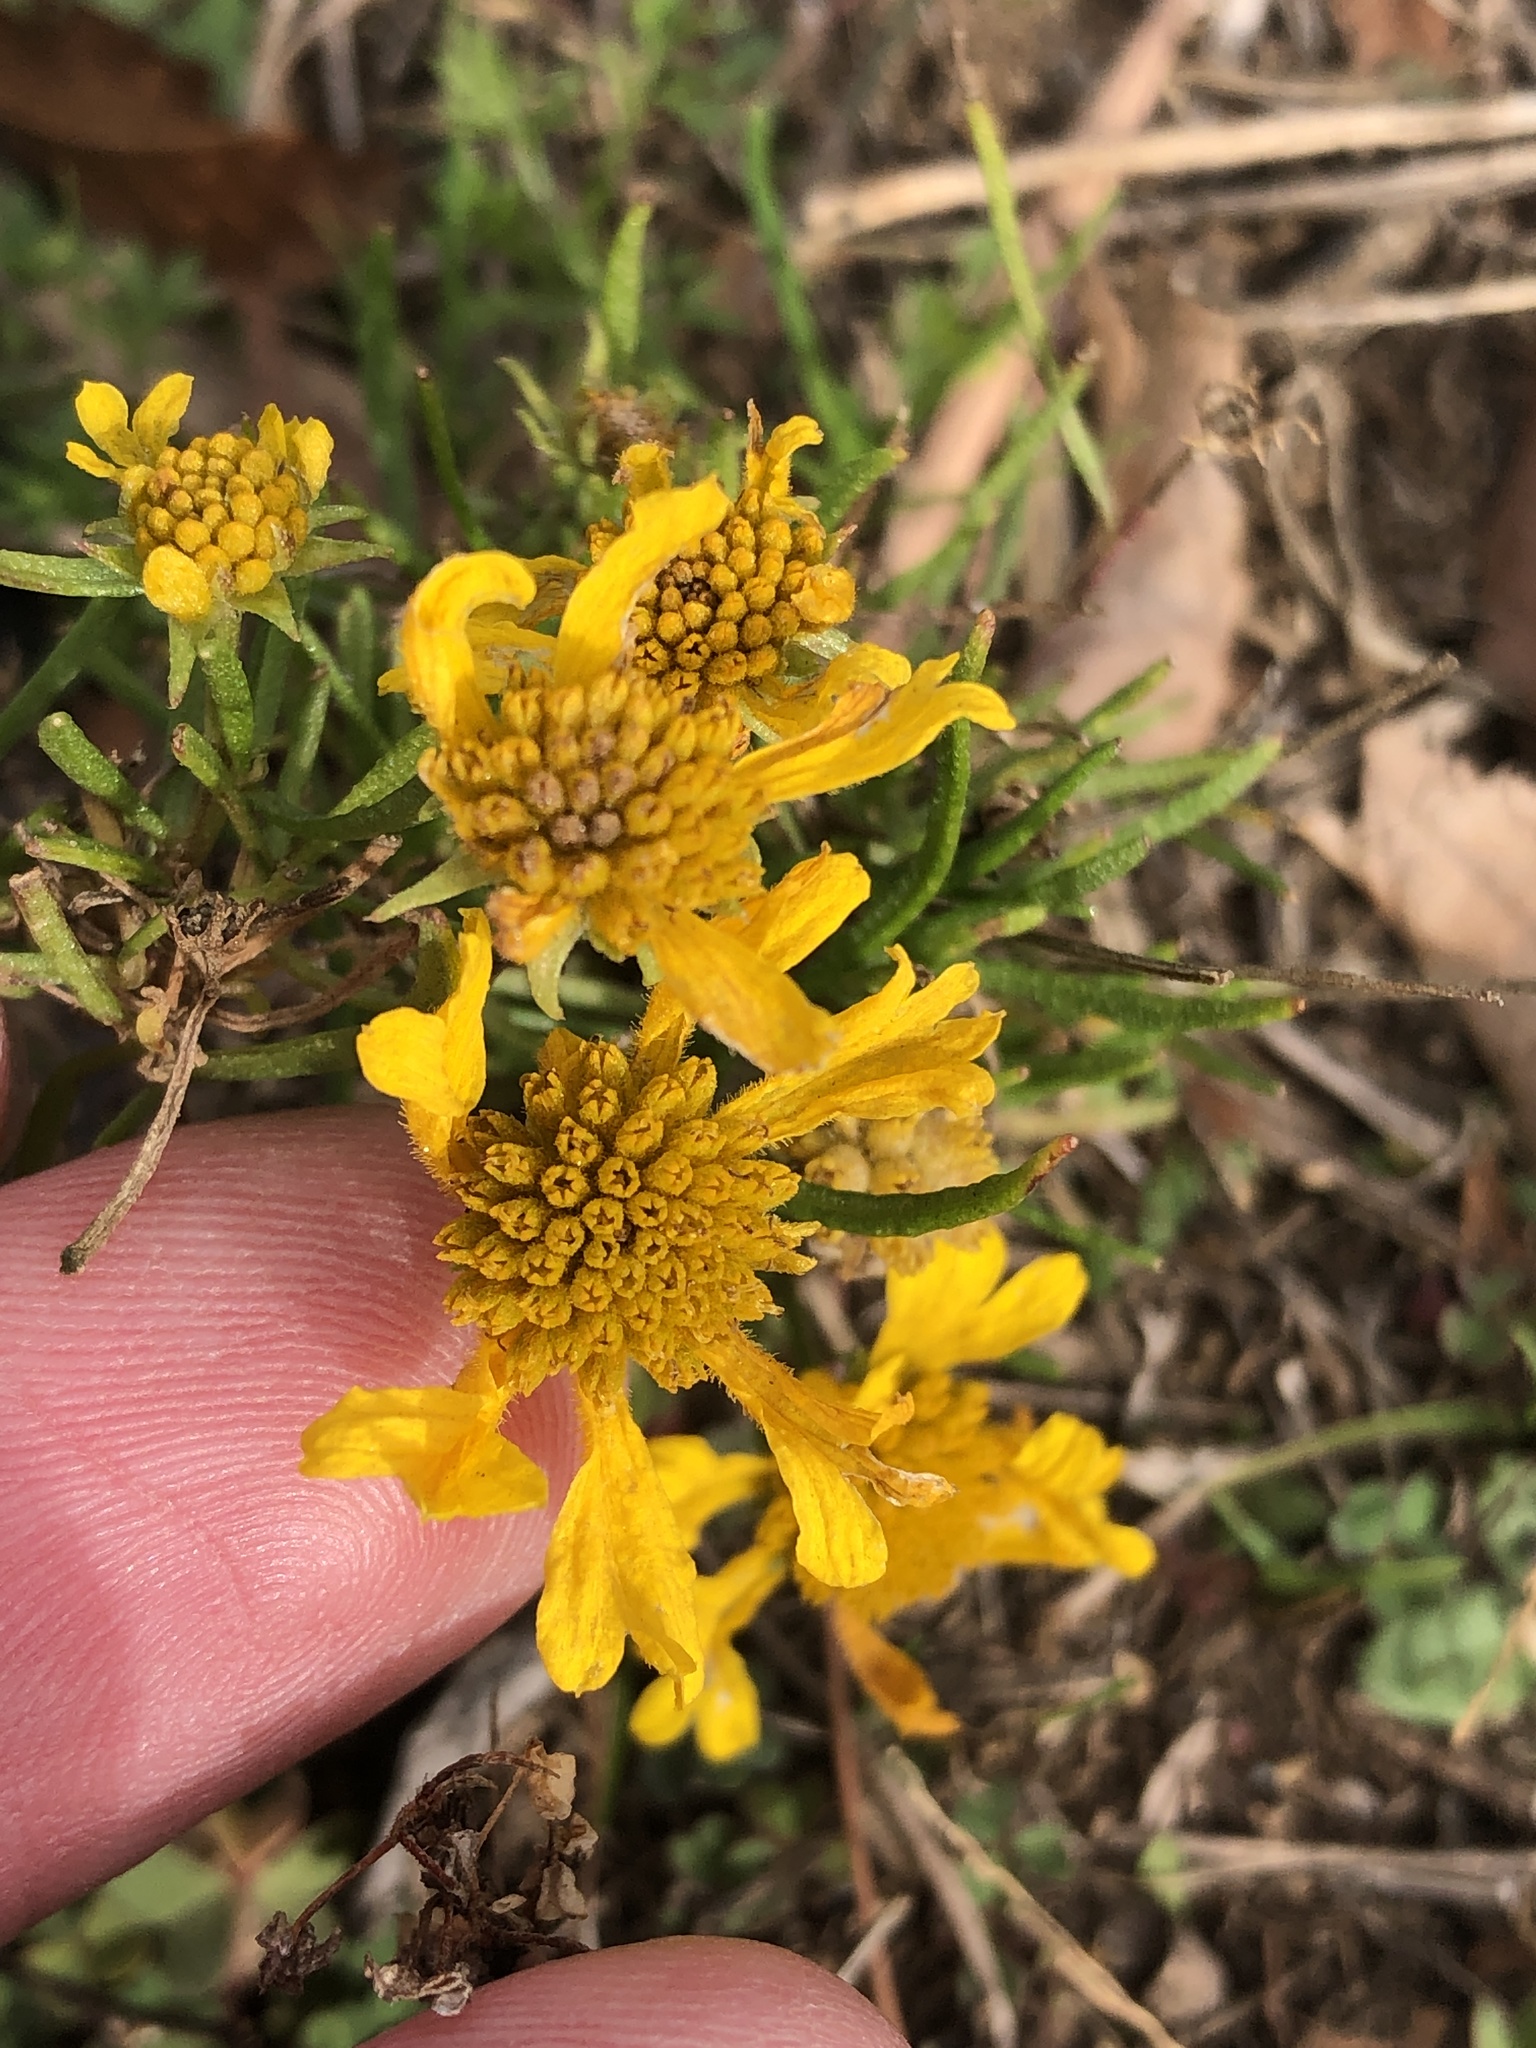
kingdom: Plantae
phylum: Tracheophyta
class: Magnoliopsida
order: Asterales
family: Asteraceae
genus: Helenium
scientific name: Helenium amarum
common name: Bitter sneezeweed
